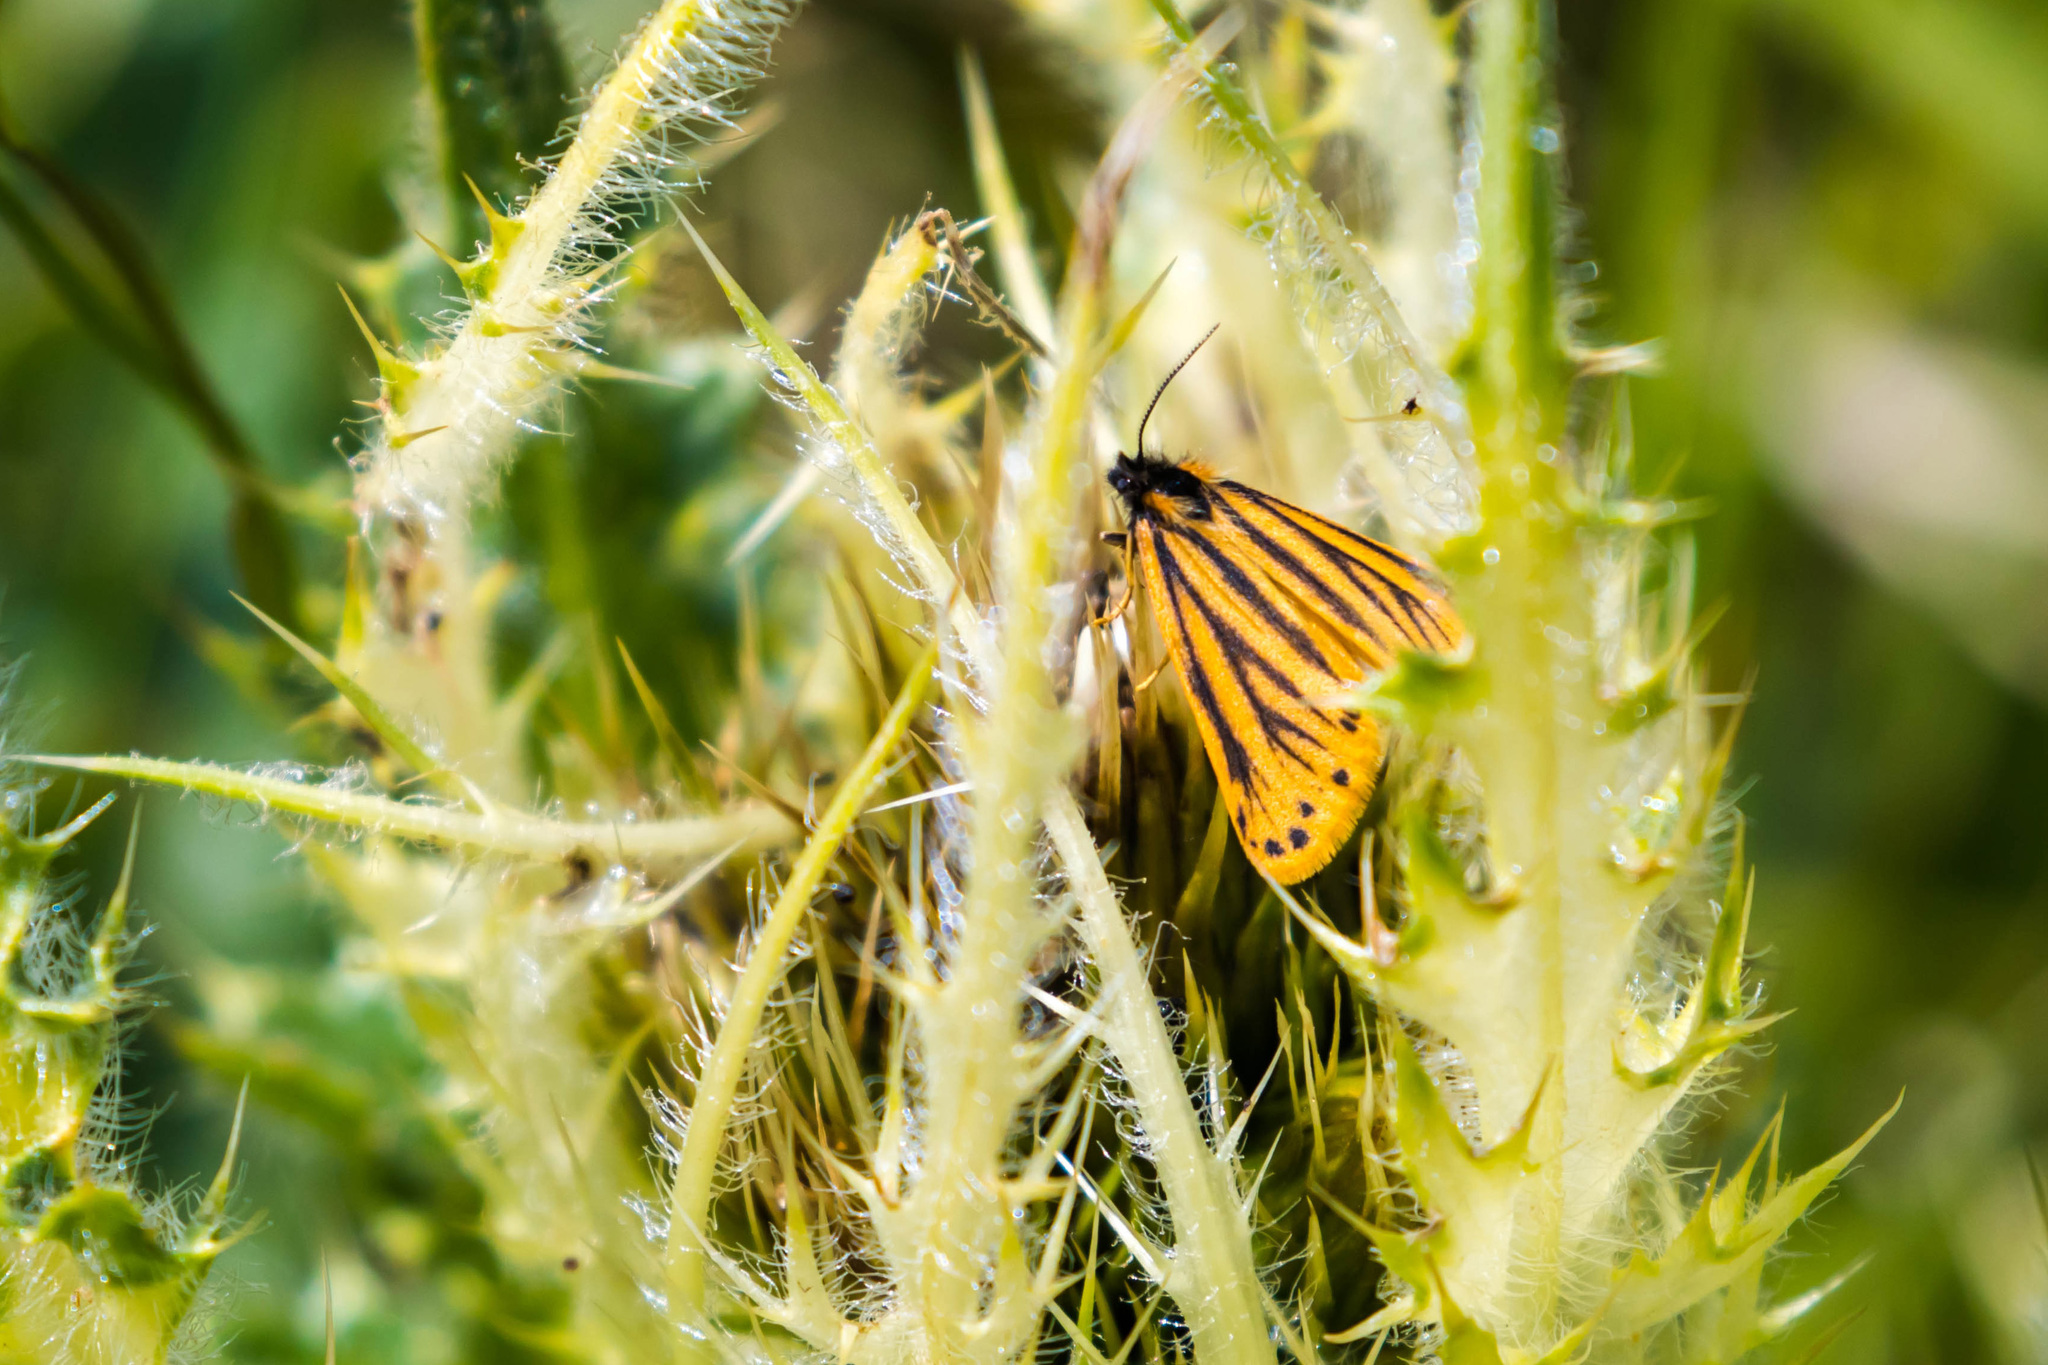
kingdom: Animalia
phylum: Arthropoda
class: Insecta
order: Lepidoptera
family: Erebidae
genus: Setina
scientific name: Setina aurita
